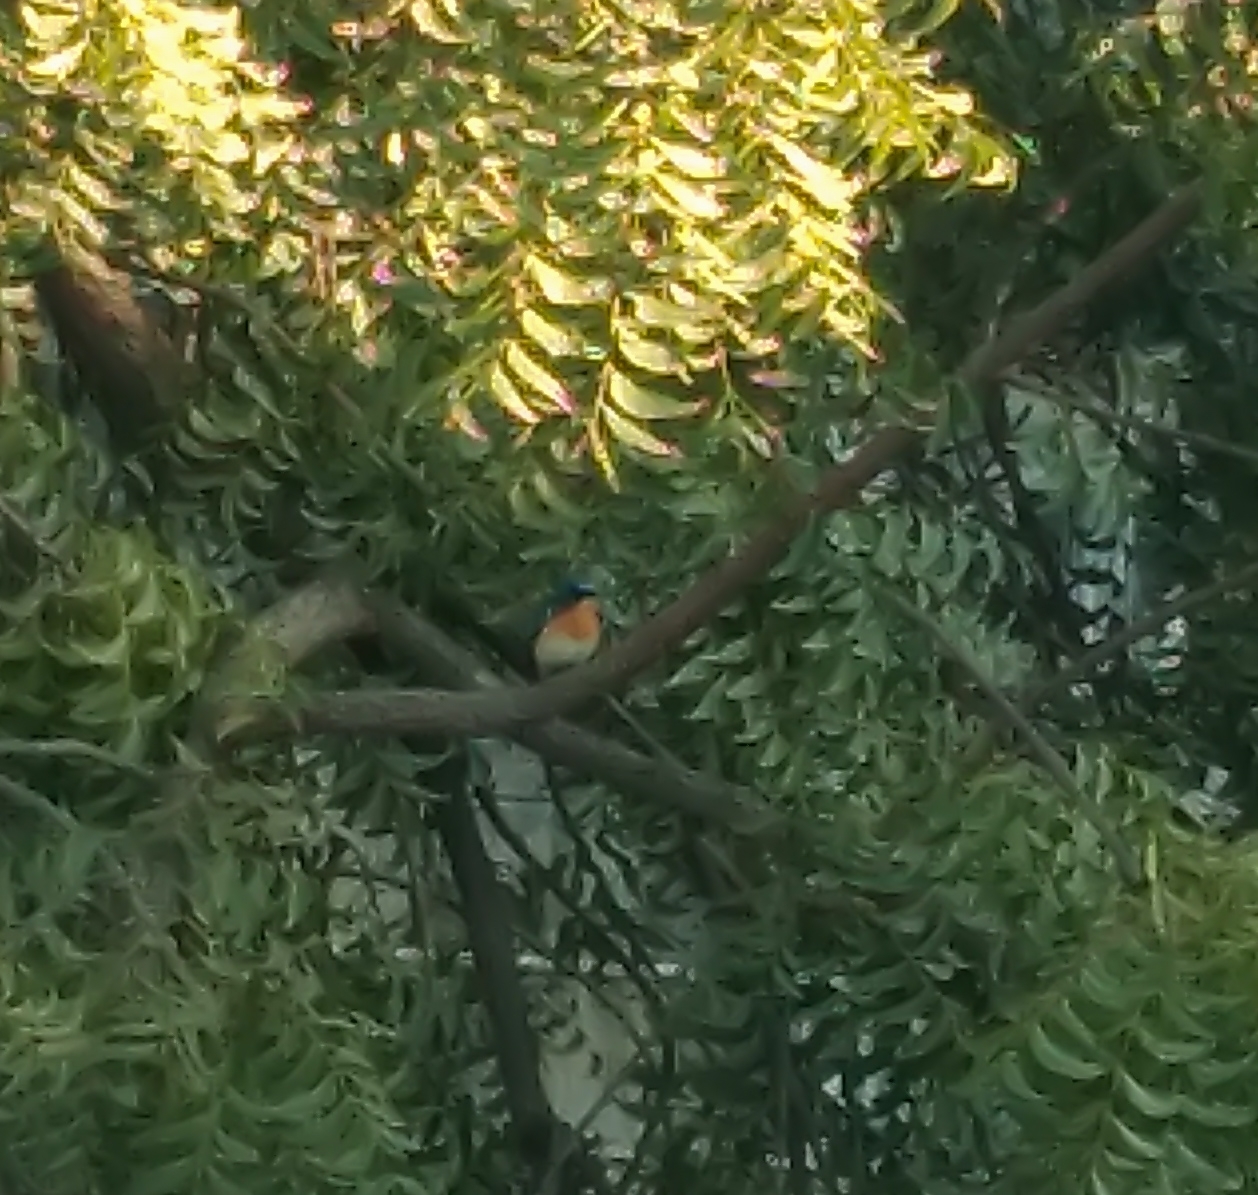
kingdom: Animalia
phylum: Chordata
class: Aves
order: Passeriformes
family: Muscicapidae
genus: Cyornis
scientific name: Cyornis tickelliae
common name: Tickell's blue flycatcher
